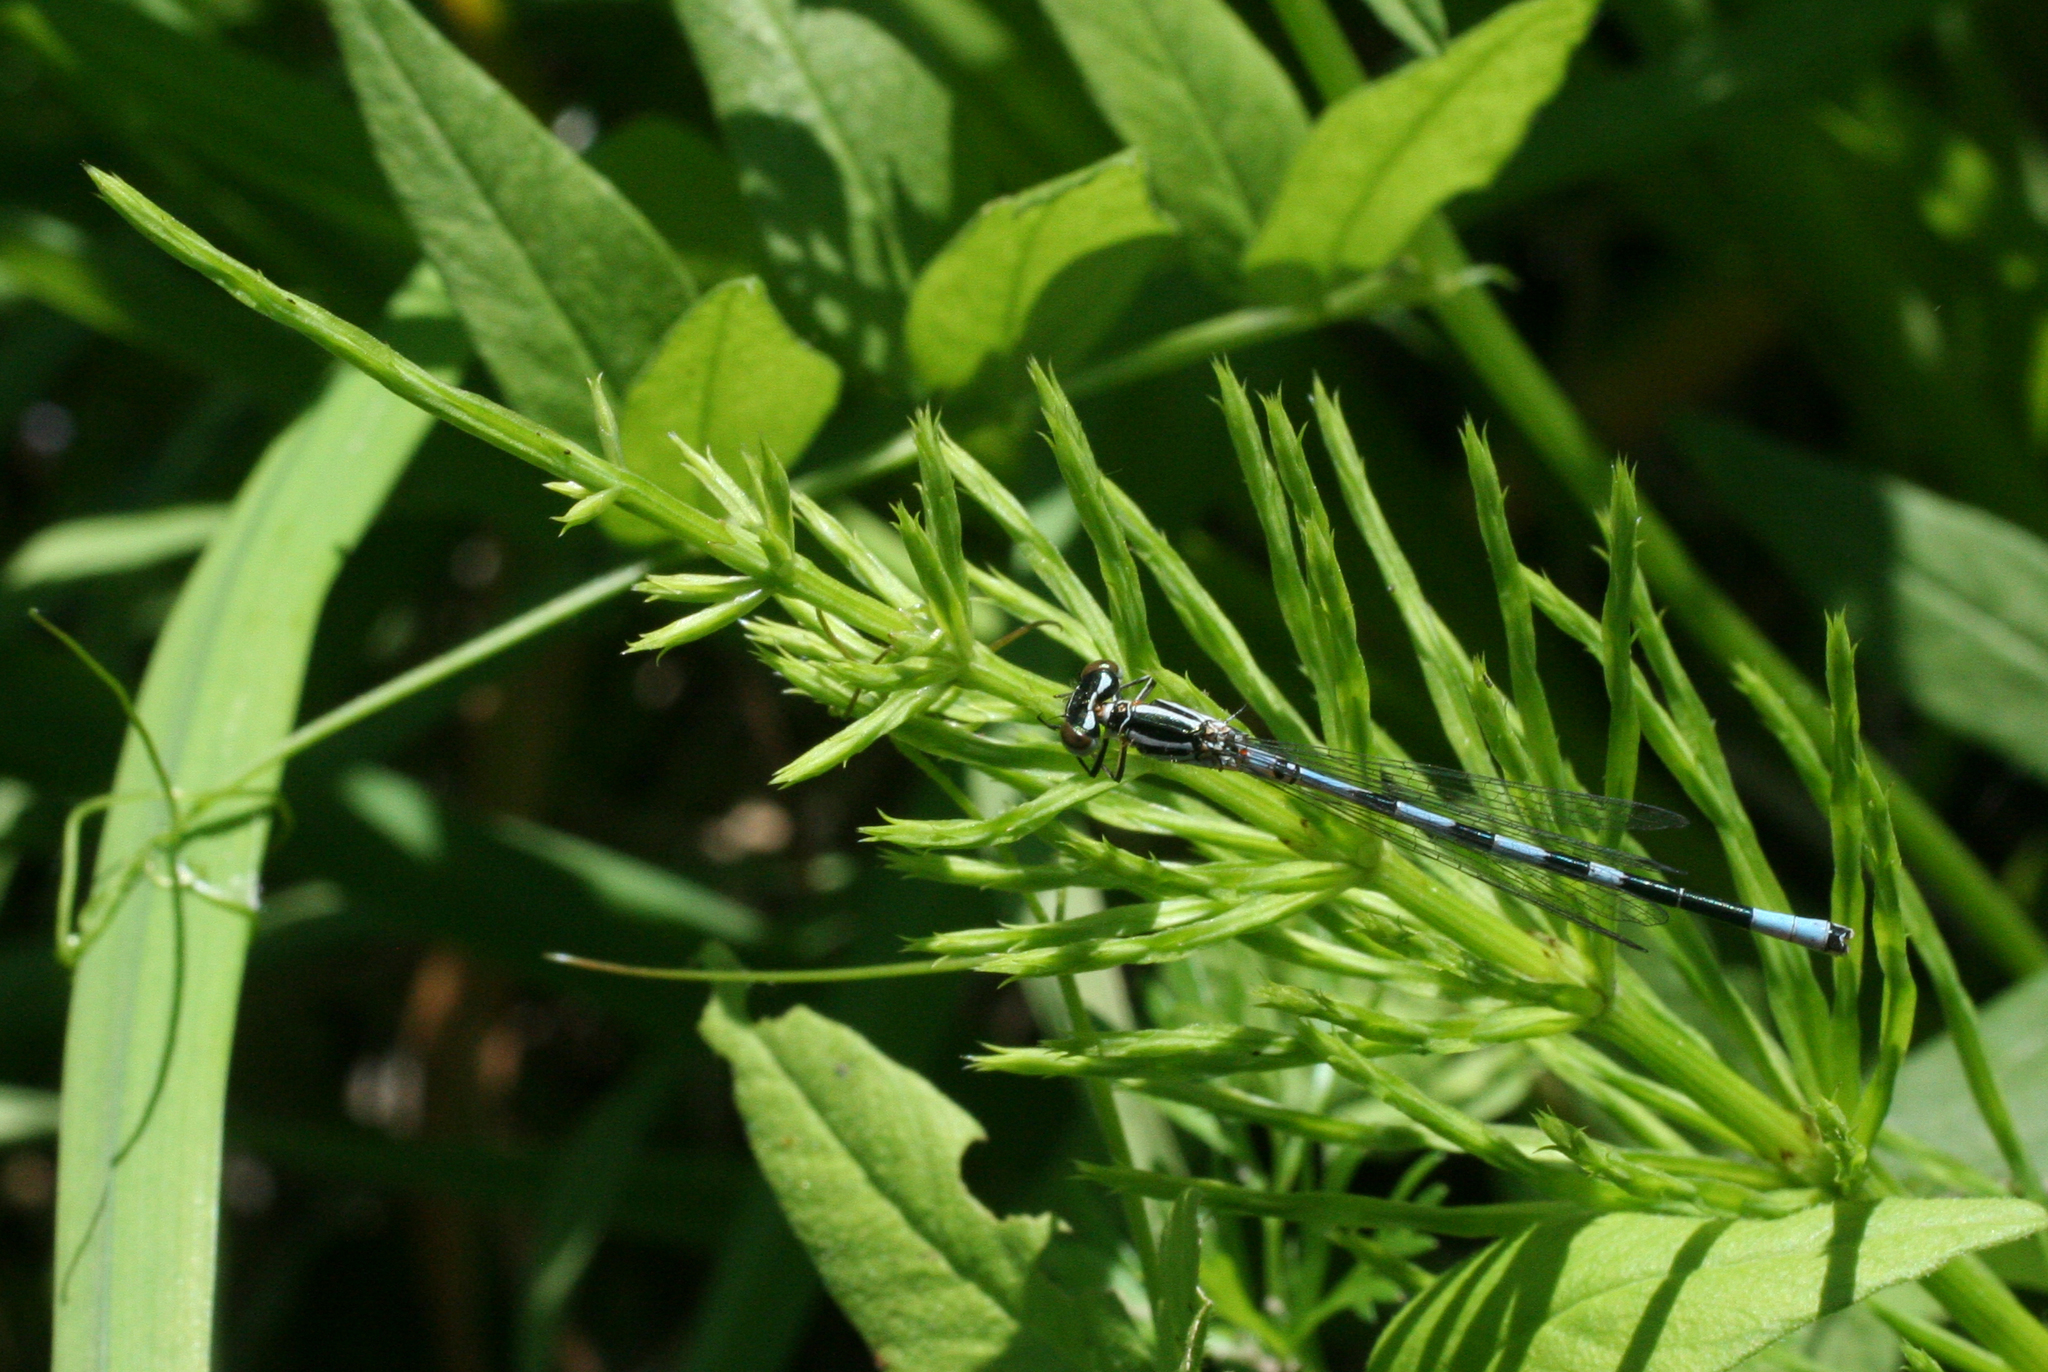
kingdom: Plantae
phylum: Tracheophyta
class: Polypodiopsida
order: Equisetales
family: Equisetaceae
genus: Equisetum
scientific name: Equisetum arvense
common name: Field horsetail
